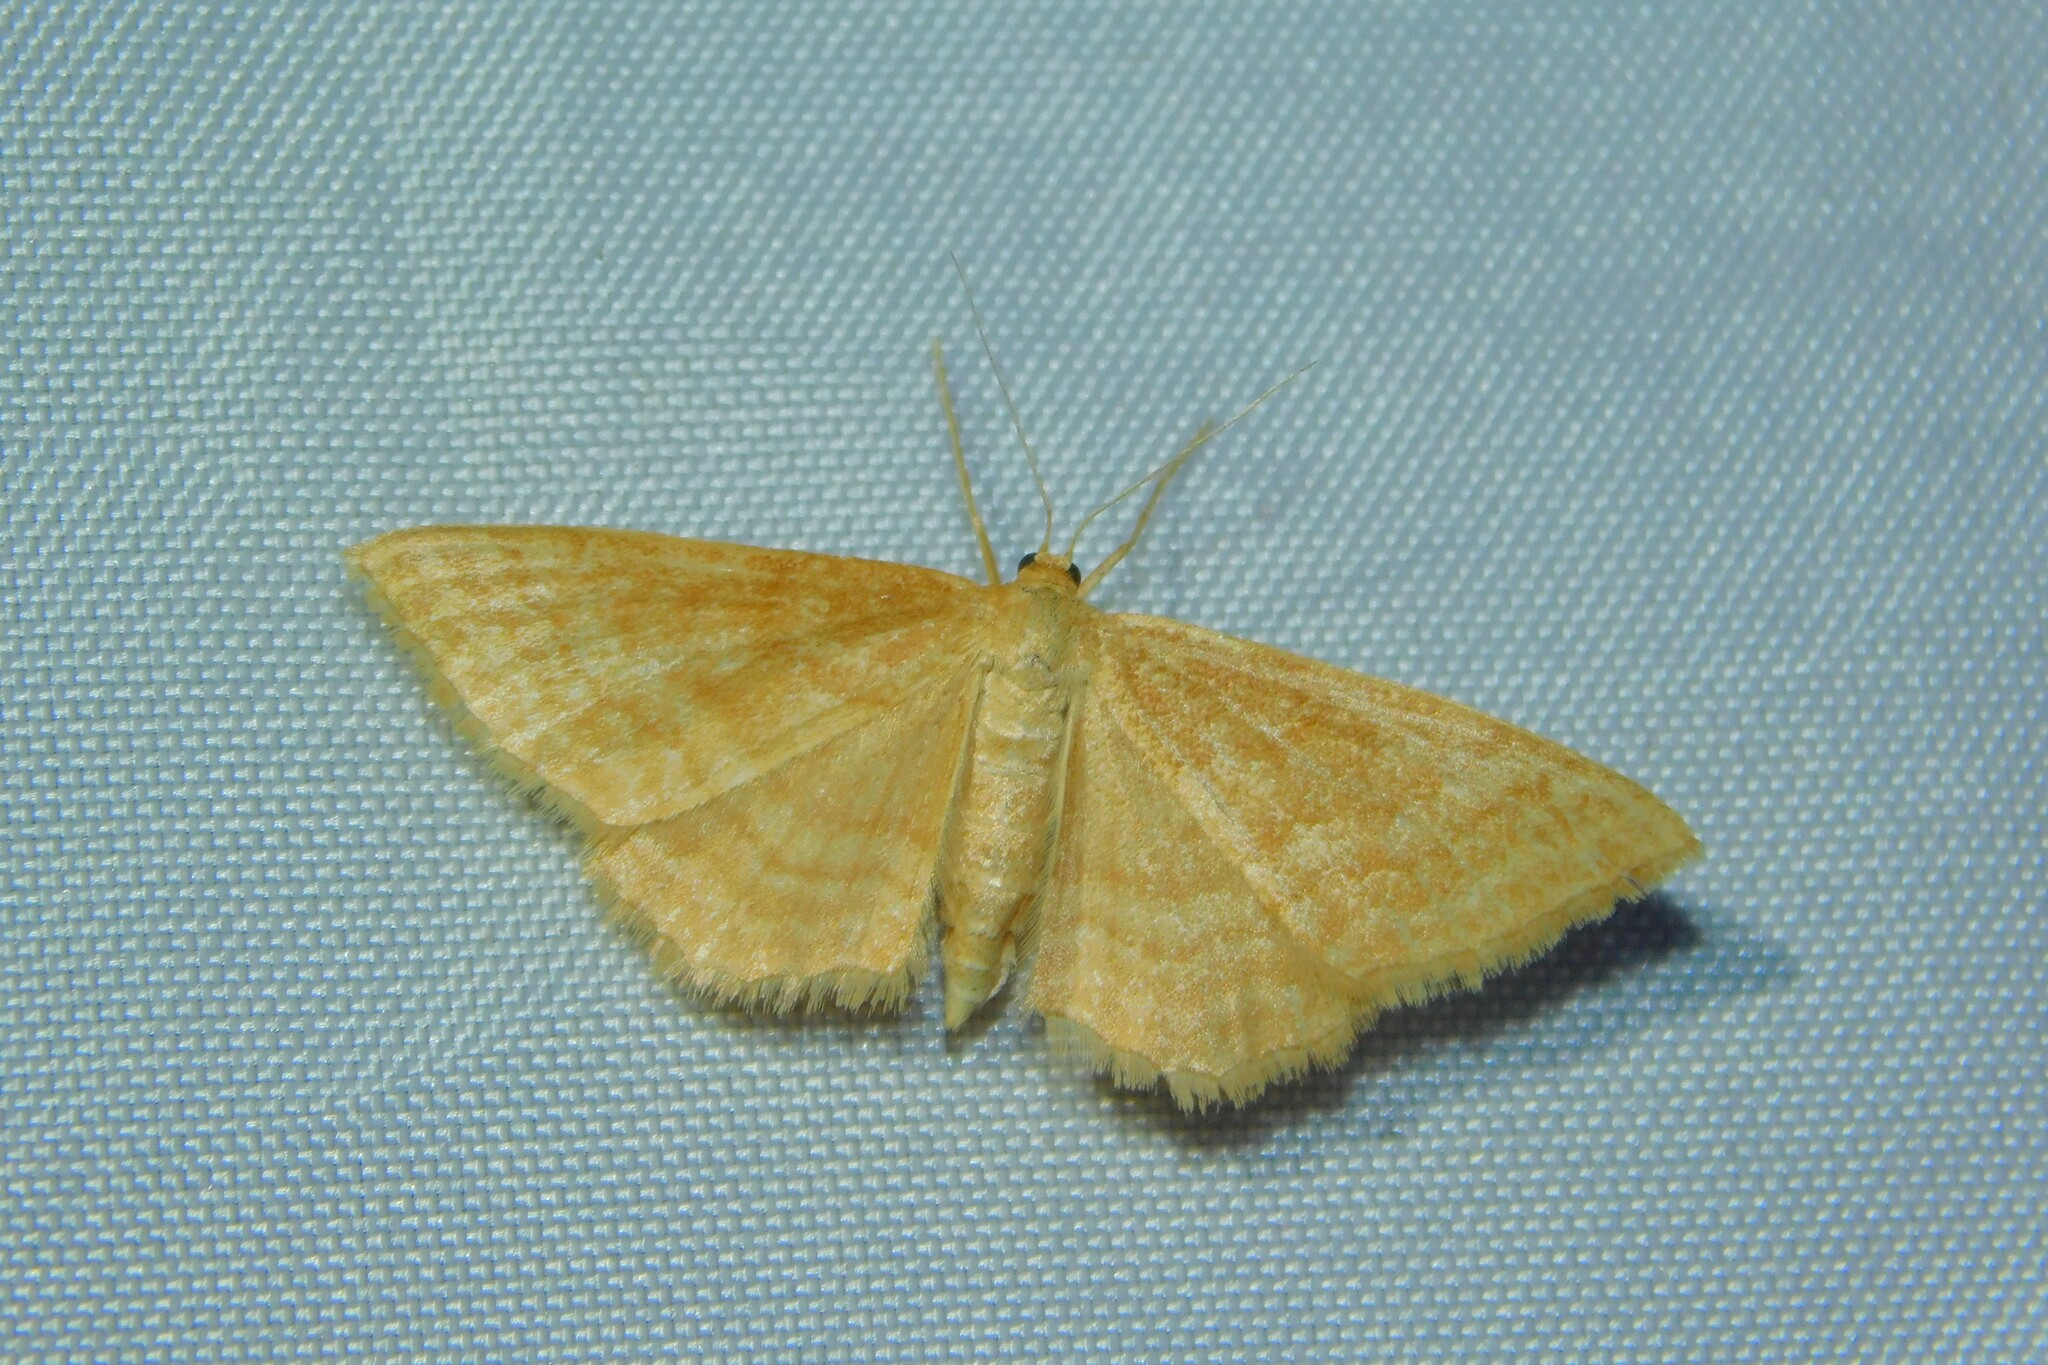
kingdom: Animalia
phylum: Arthropoda
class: Insecta
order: Lepidoptera
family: Geometridae
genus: Idaea
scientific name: Idaea ochrata
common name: Bright wave
